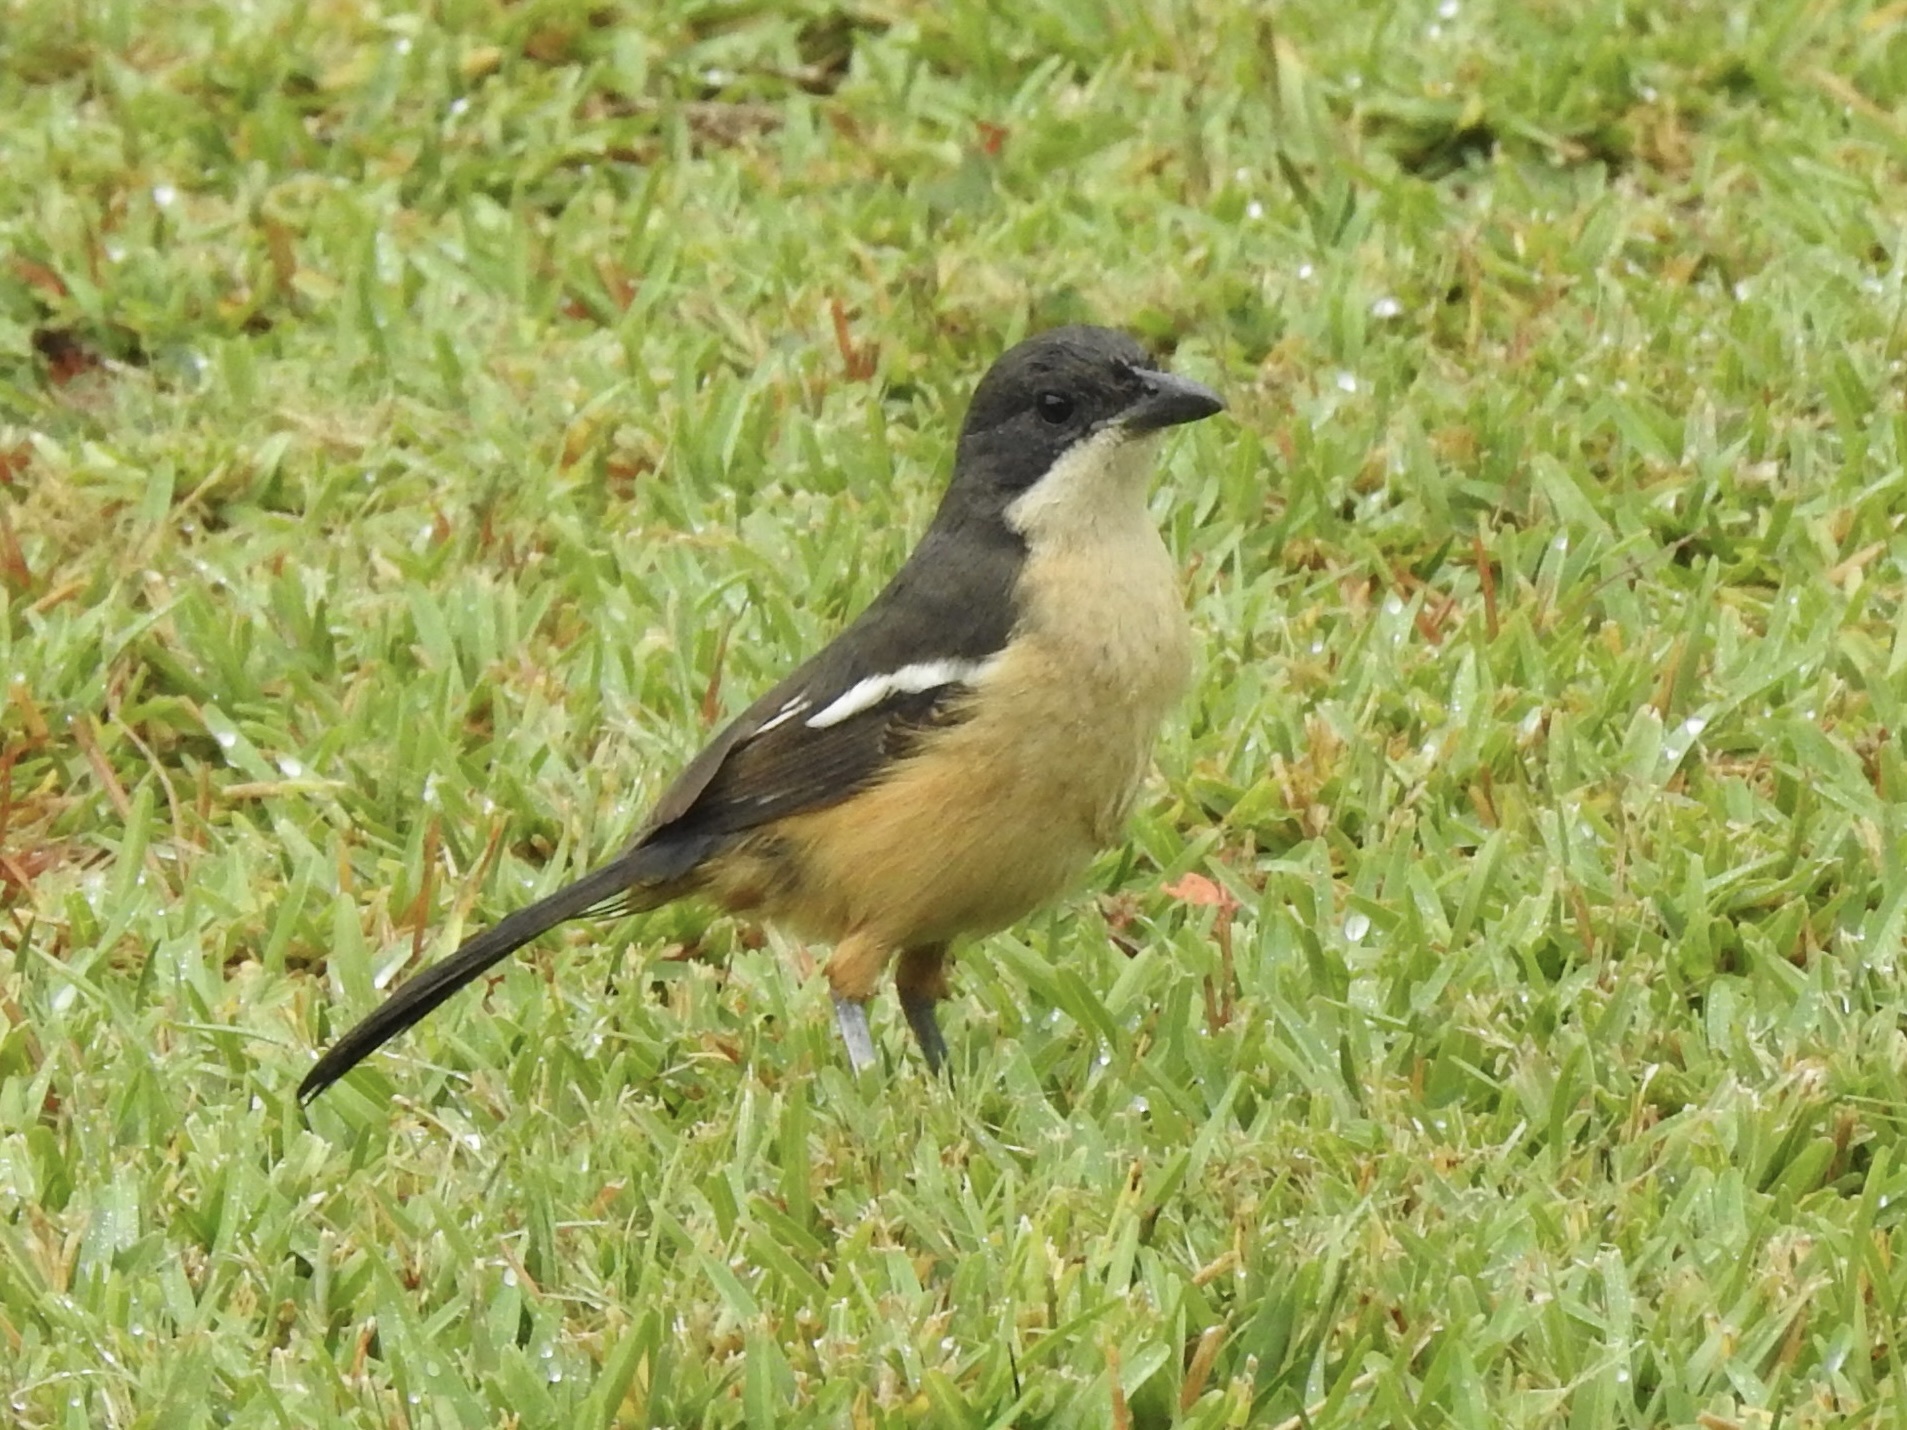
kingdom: Animalia
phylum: Chordata
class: Aves
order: Passeriformes
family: Malaconotidae
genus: Laniarius
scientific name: Laniarius ferrugineus
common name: Southern boubou
